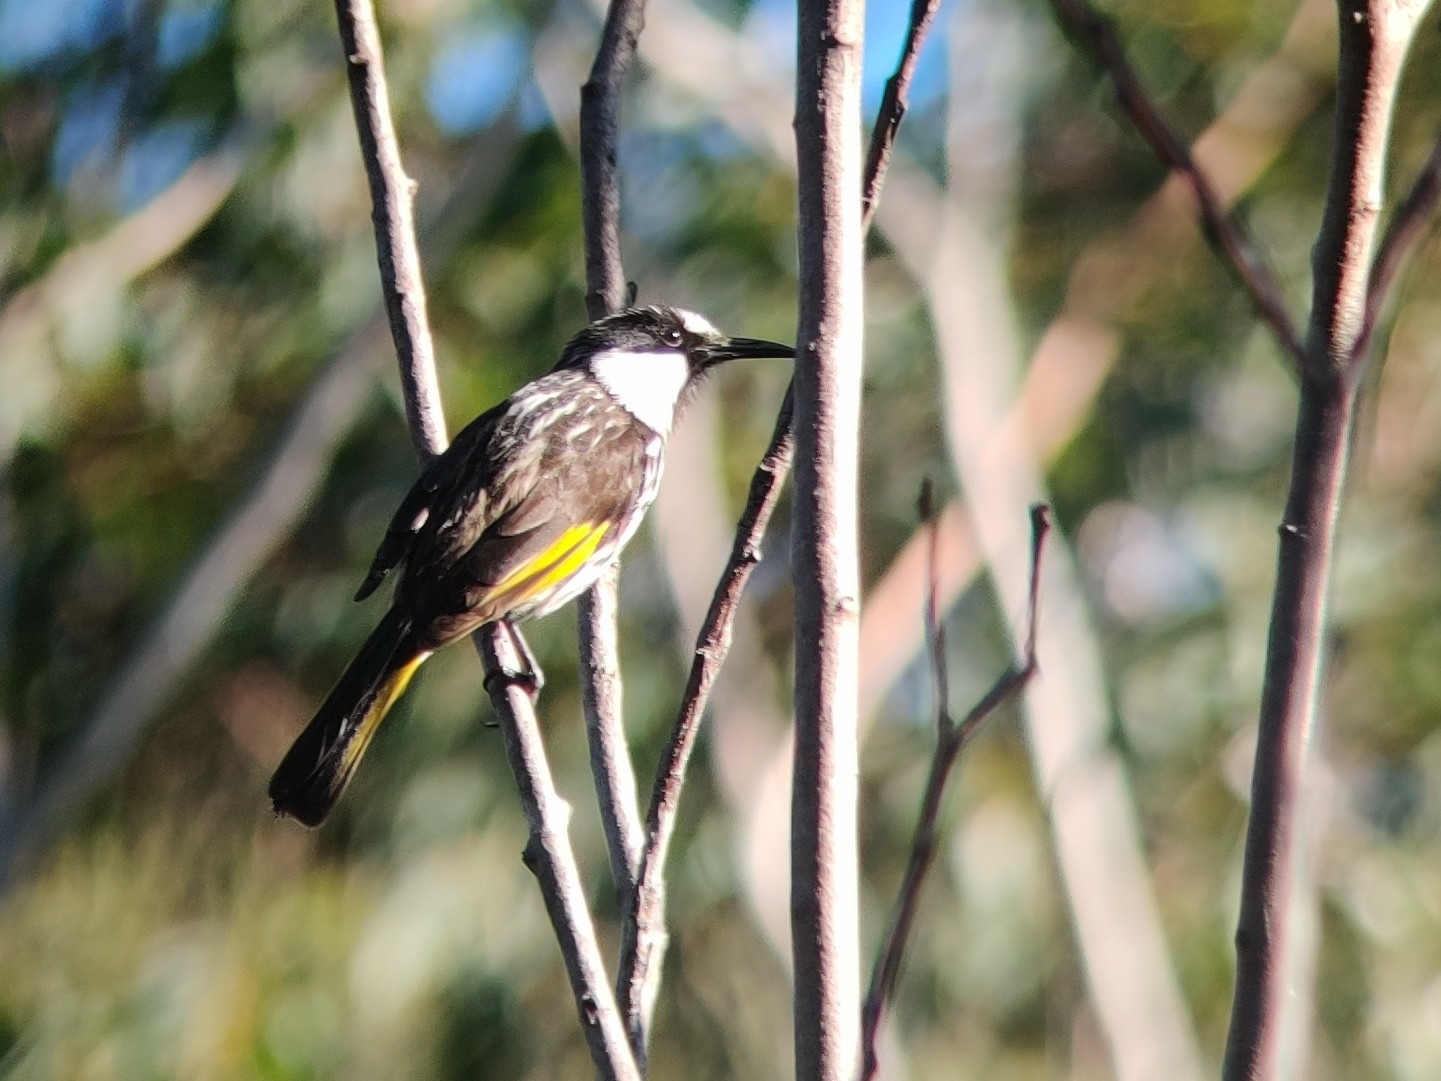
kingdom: Animalia
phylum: Chordata
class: Aves
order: Passeriformes
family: Meliphagidae
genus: Phylidonyris
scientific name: Phylidonyris niger
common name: White-cheeked honeyeater
